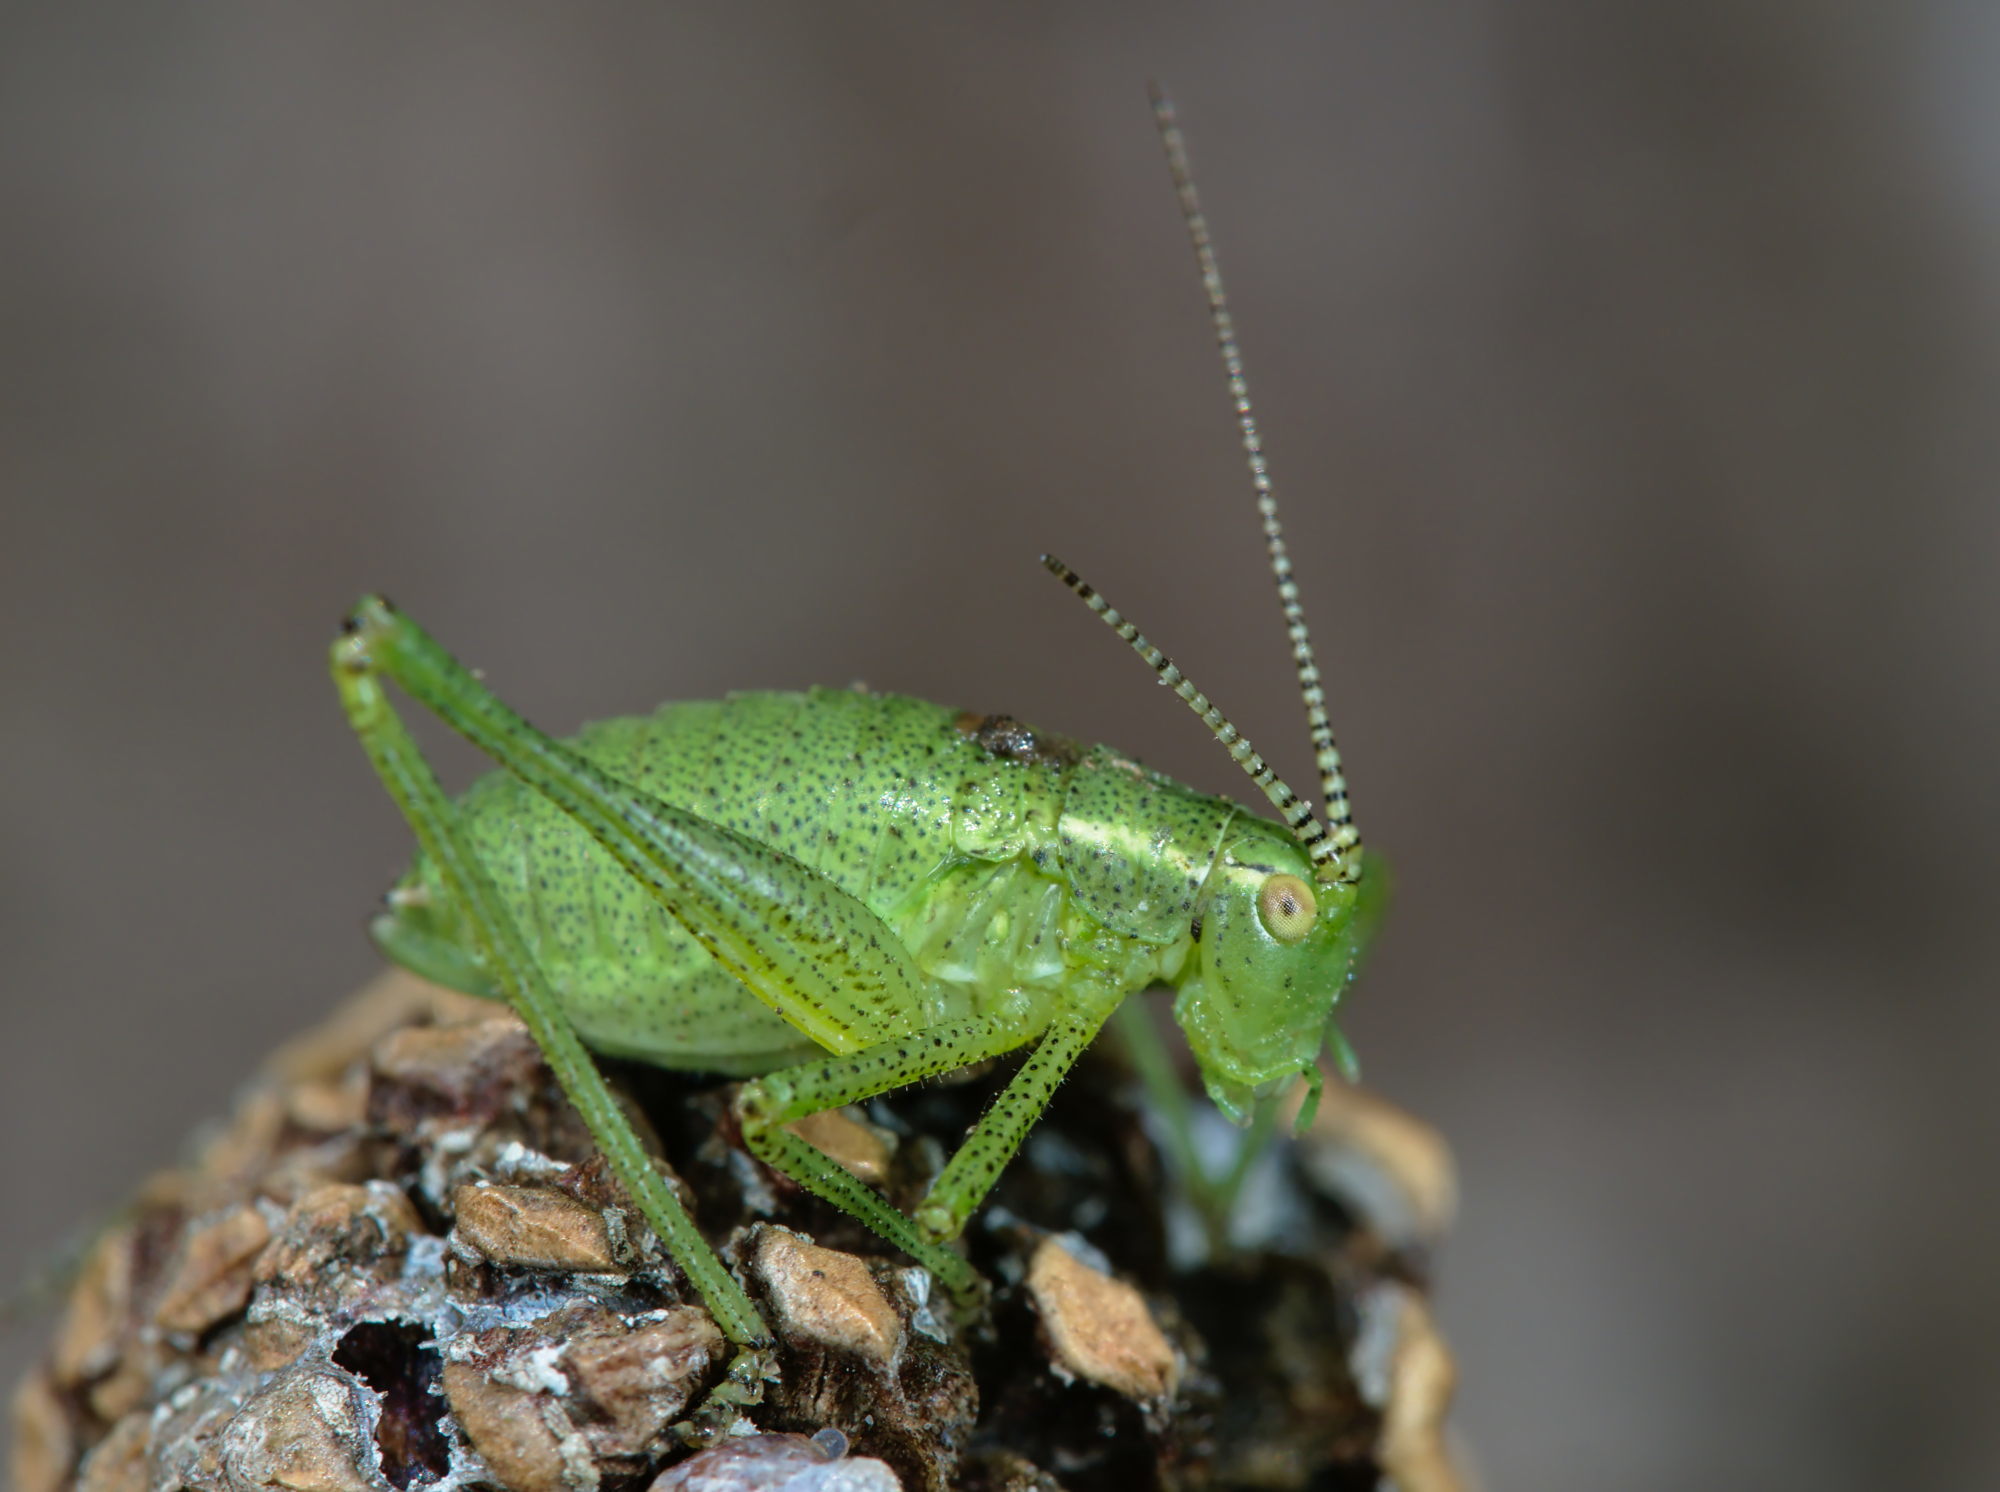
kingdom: Animalia
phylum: Arthropoda
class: Insecta
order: Orthoptera
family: Tettigoniidae
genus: Leptophyes
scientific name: Leptophyes punctatissima
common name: Speckled bush-cricket
